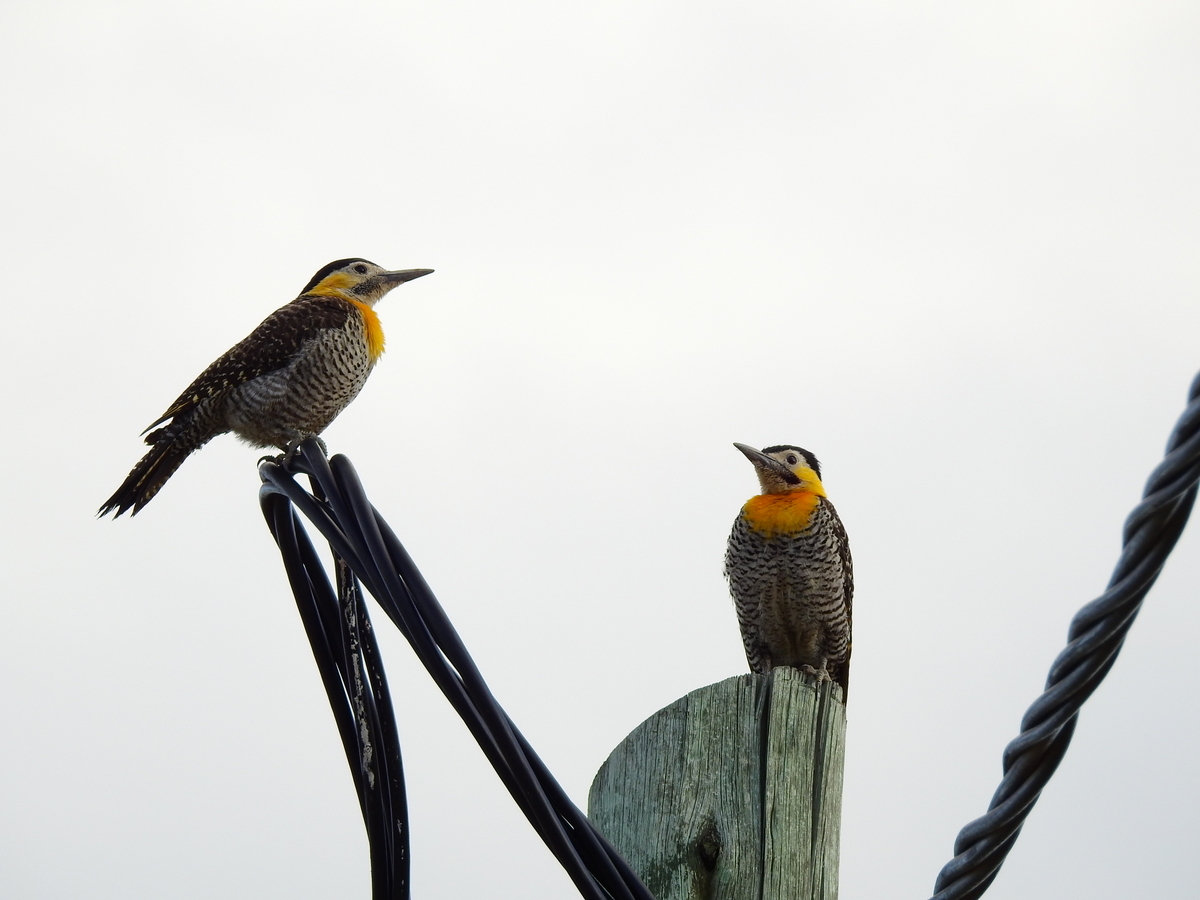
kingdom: Animalia
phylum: Chordata
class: Aves
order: Piciformes
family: Picidae
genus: Colaptes
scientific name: Colaptes campestris
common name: Campo flicker
